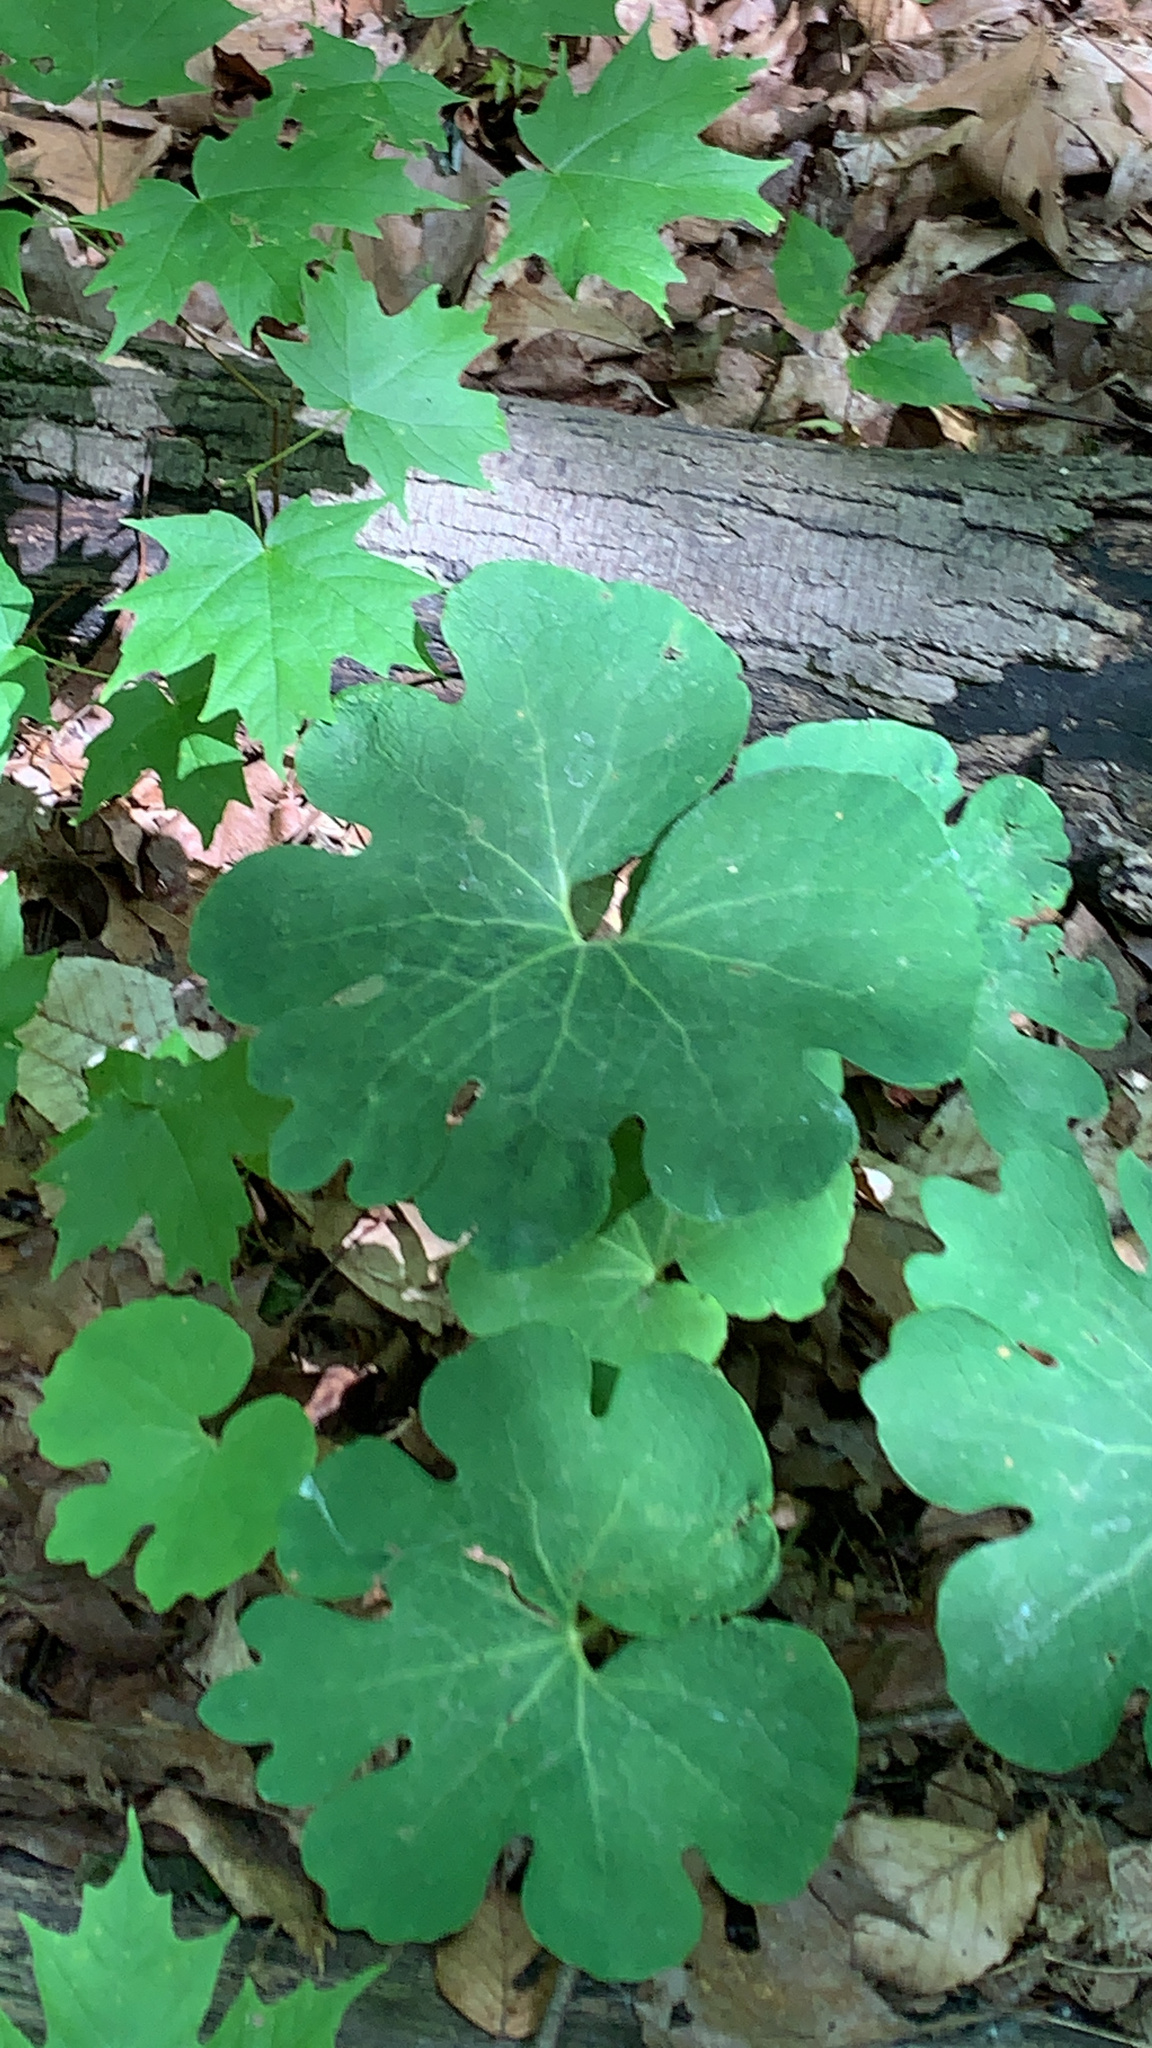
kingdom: Plantae
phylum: Tracheophyta
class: Magnoliopsida
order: Ranunculales
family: Papaveraceae
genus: Sanguinaria
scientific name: Sanguinaria canadensis
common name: Bloodroot
